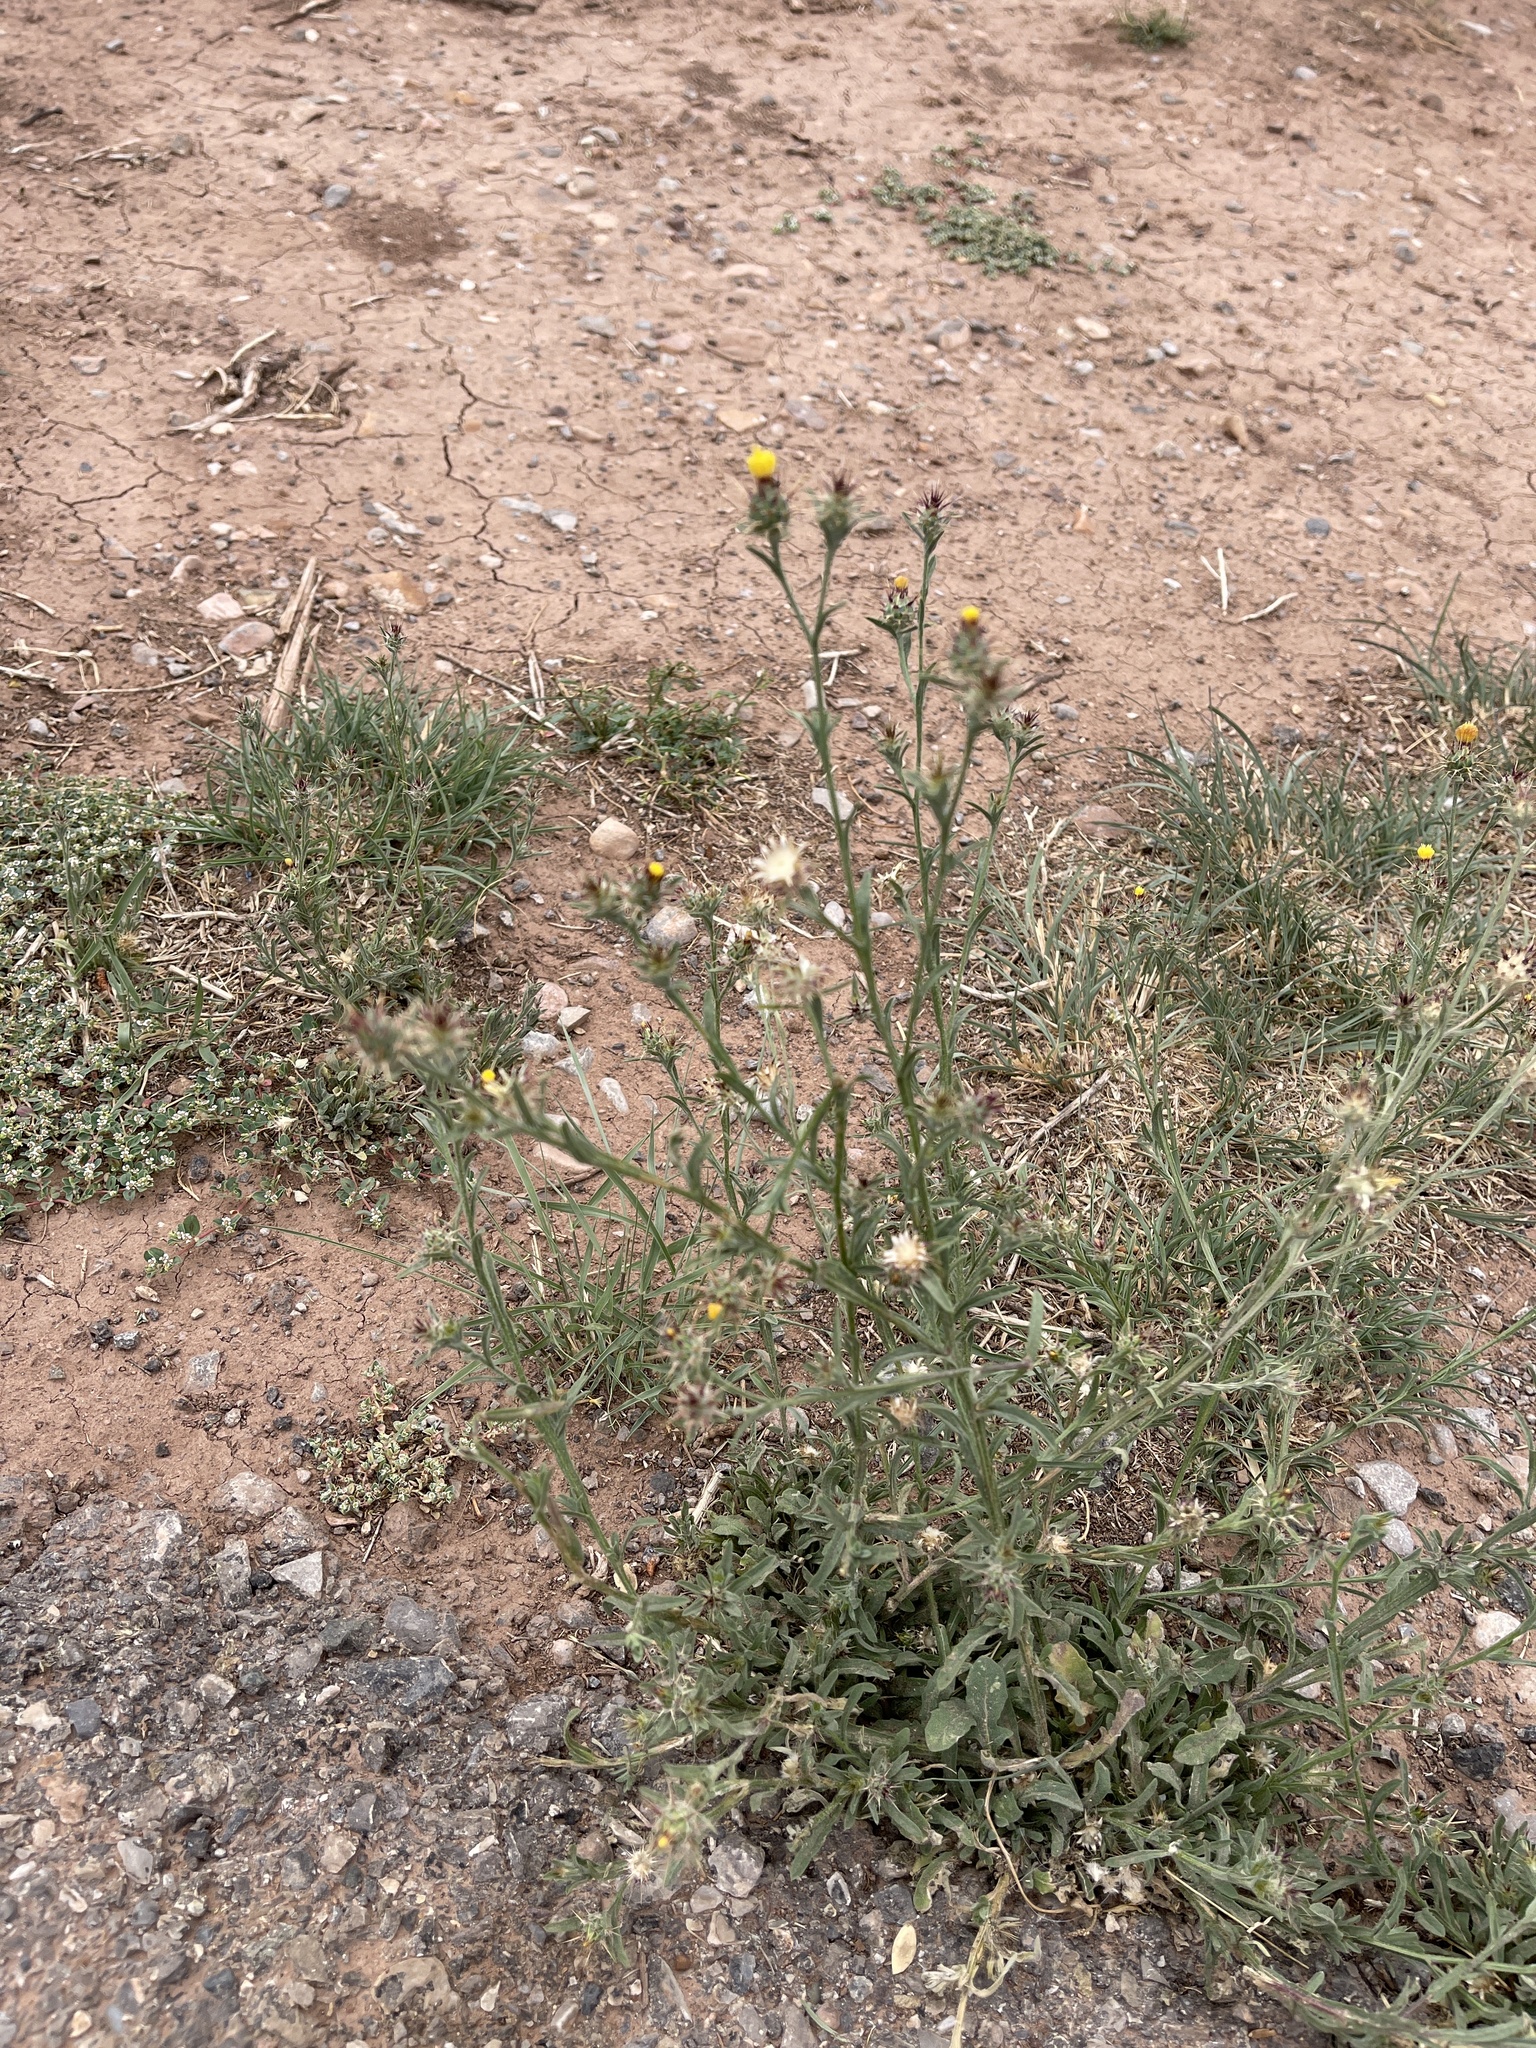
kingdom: Plantae
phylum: Tracheophyta
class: Magnoliopsida
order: Asterales
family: Asteraceae
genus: Centaurea
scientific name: Centaurea melitensis
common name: Maltese star-thistle
